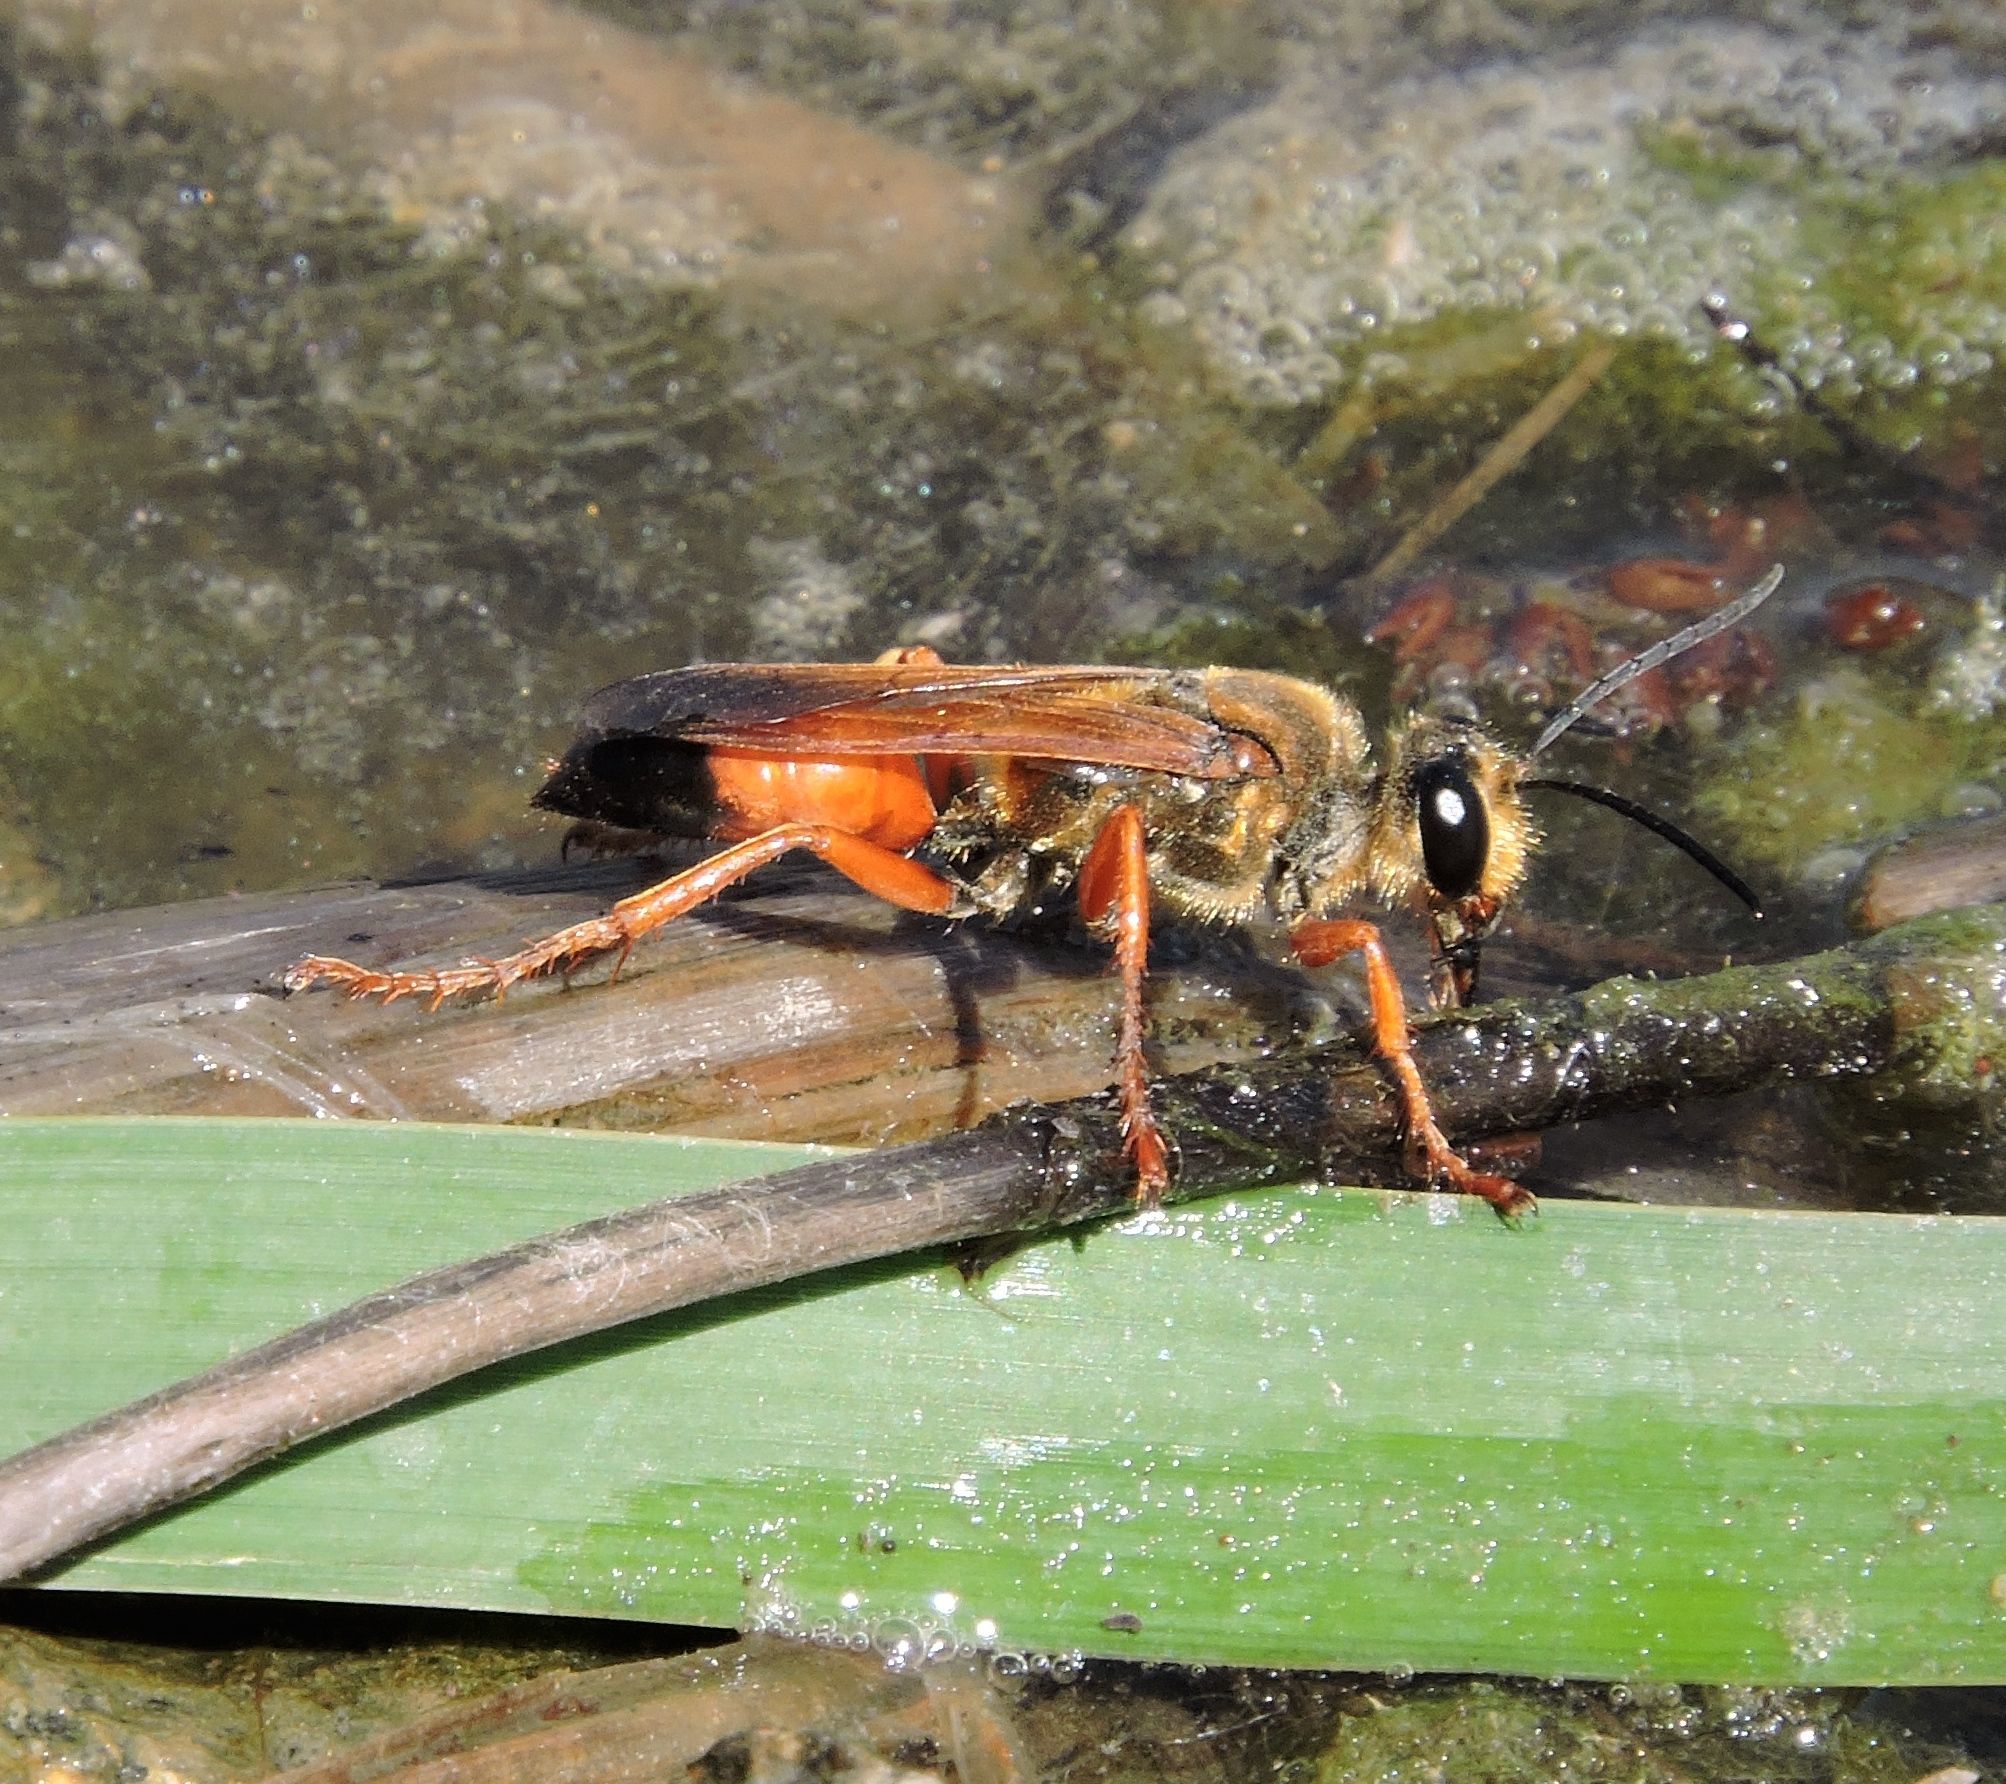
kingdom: Animalia
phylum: Arthropoda
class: Insecta
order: Hymenoptera
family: Sphecidae
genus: Sphex
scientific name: Sphex ichneumoneus
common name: Great golden digger wasp
